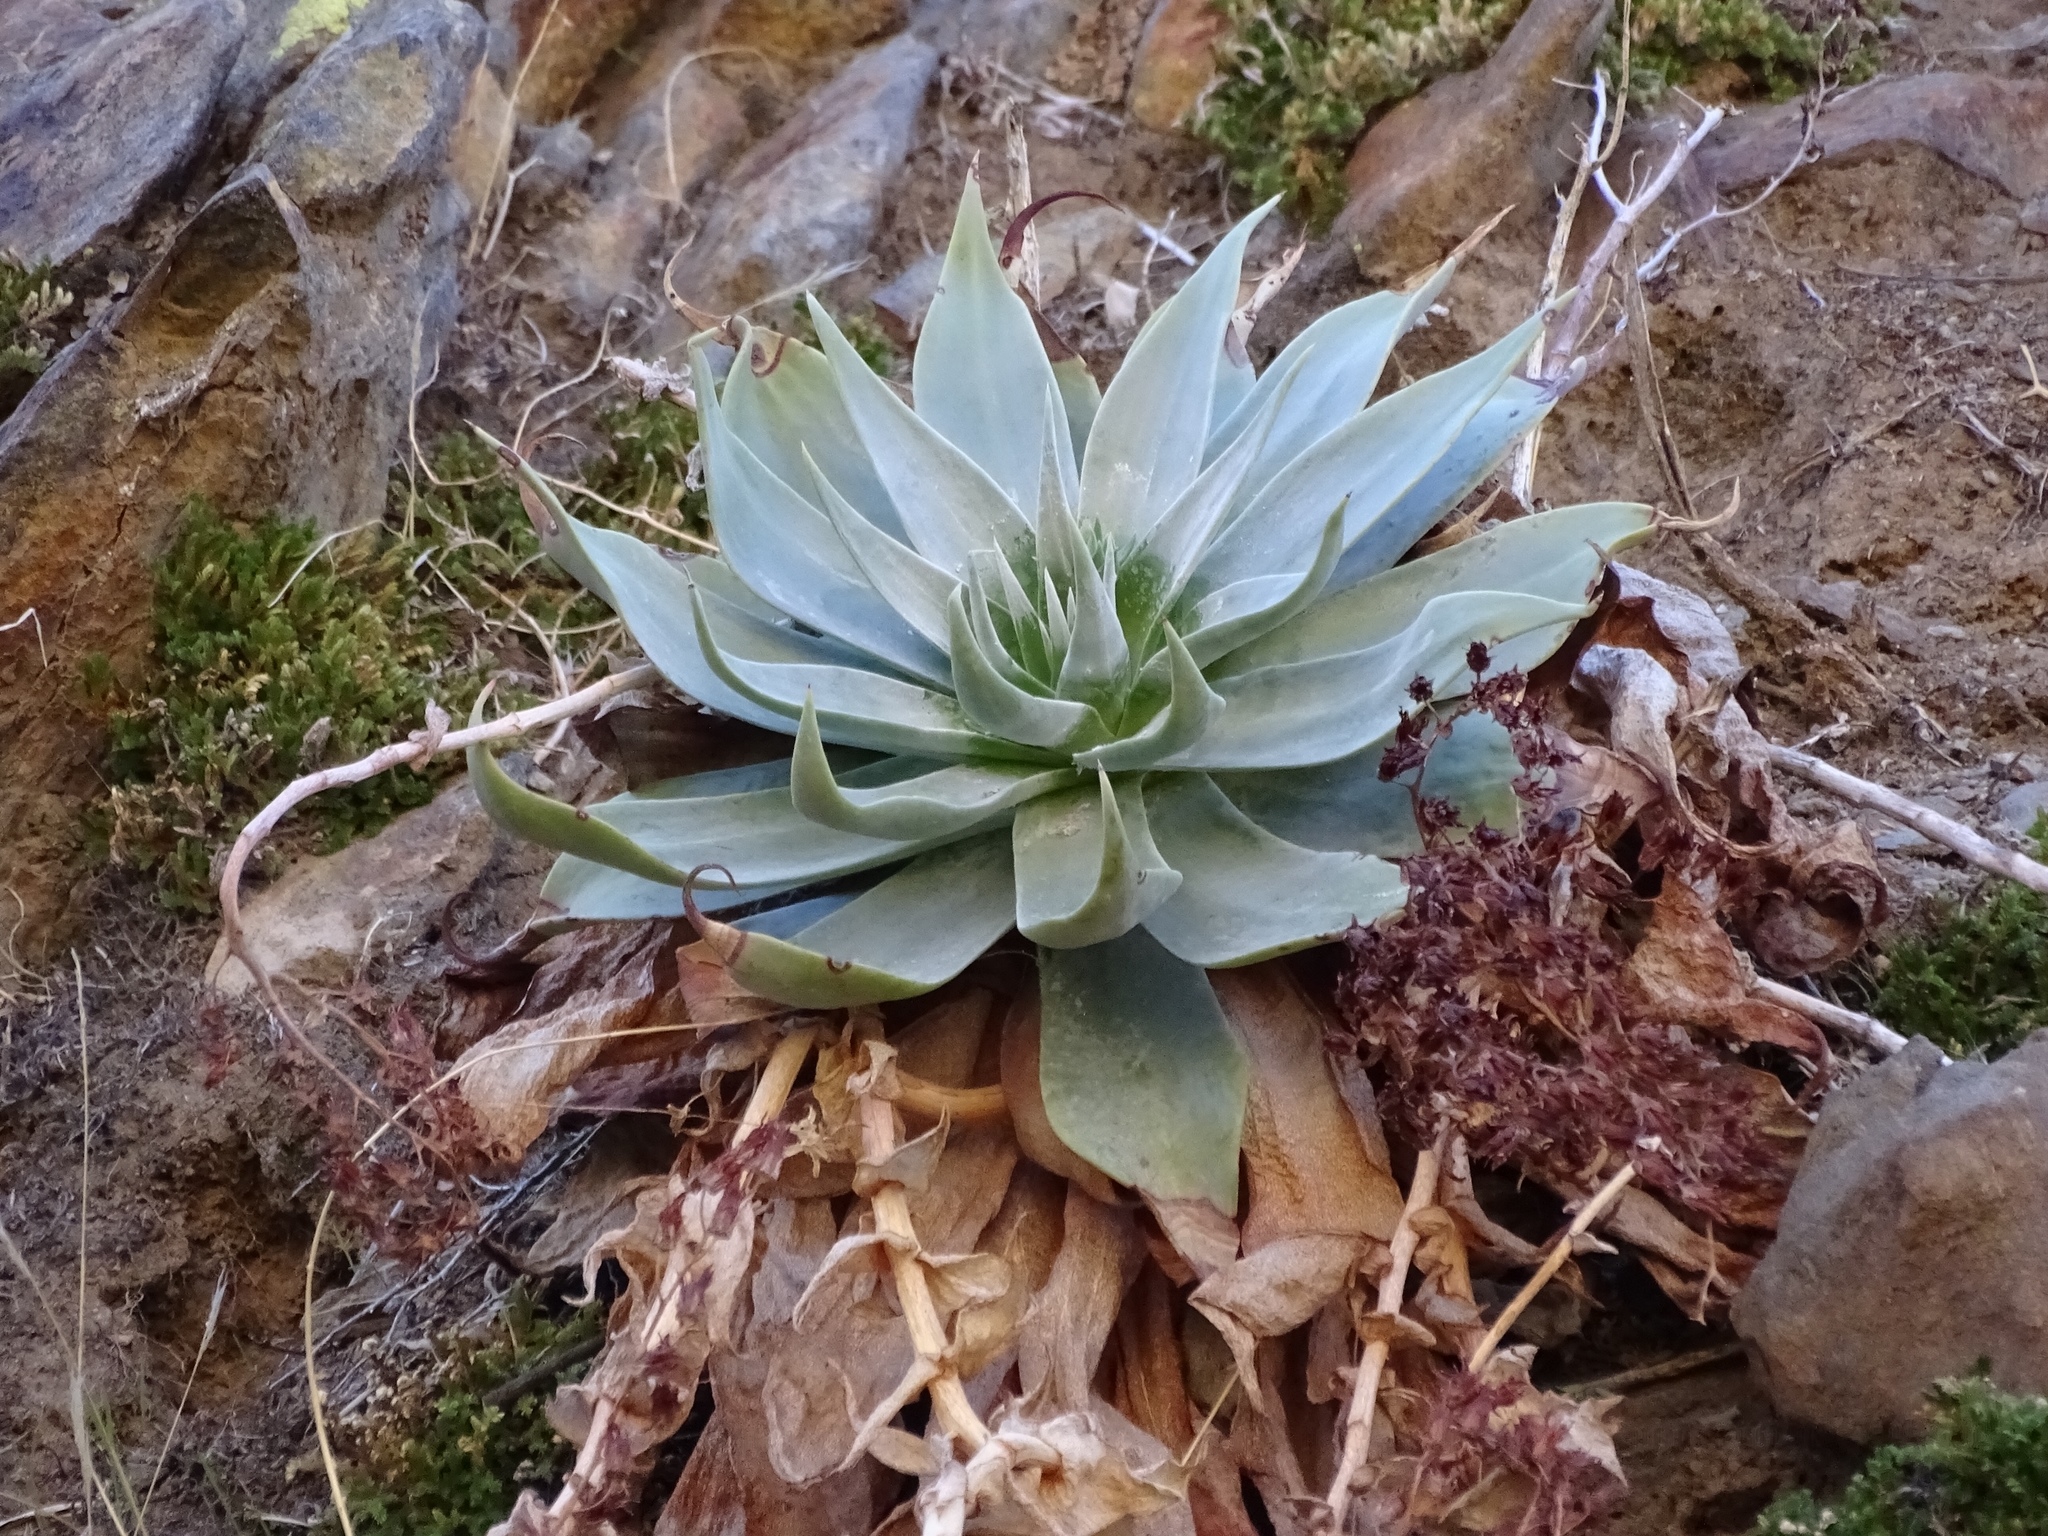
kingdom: Plantae
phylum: Tracheophyta
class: Magnoliopsida
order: Saxifragales
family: Crassulaceae
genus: Dudleya
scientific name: Dudleya arizonica
